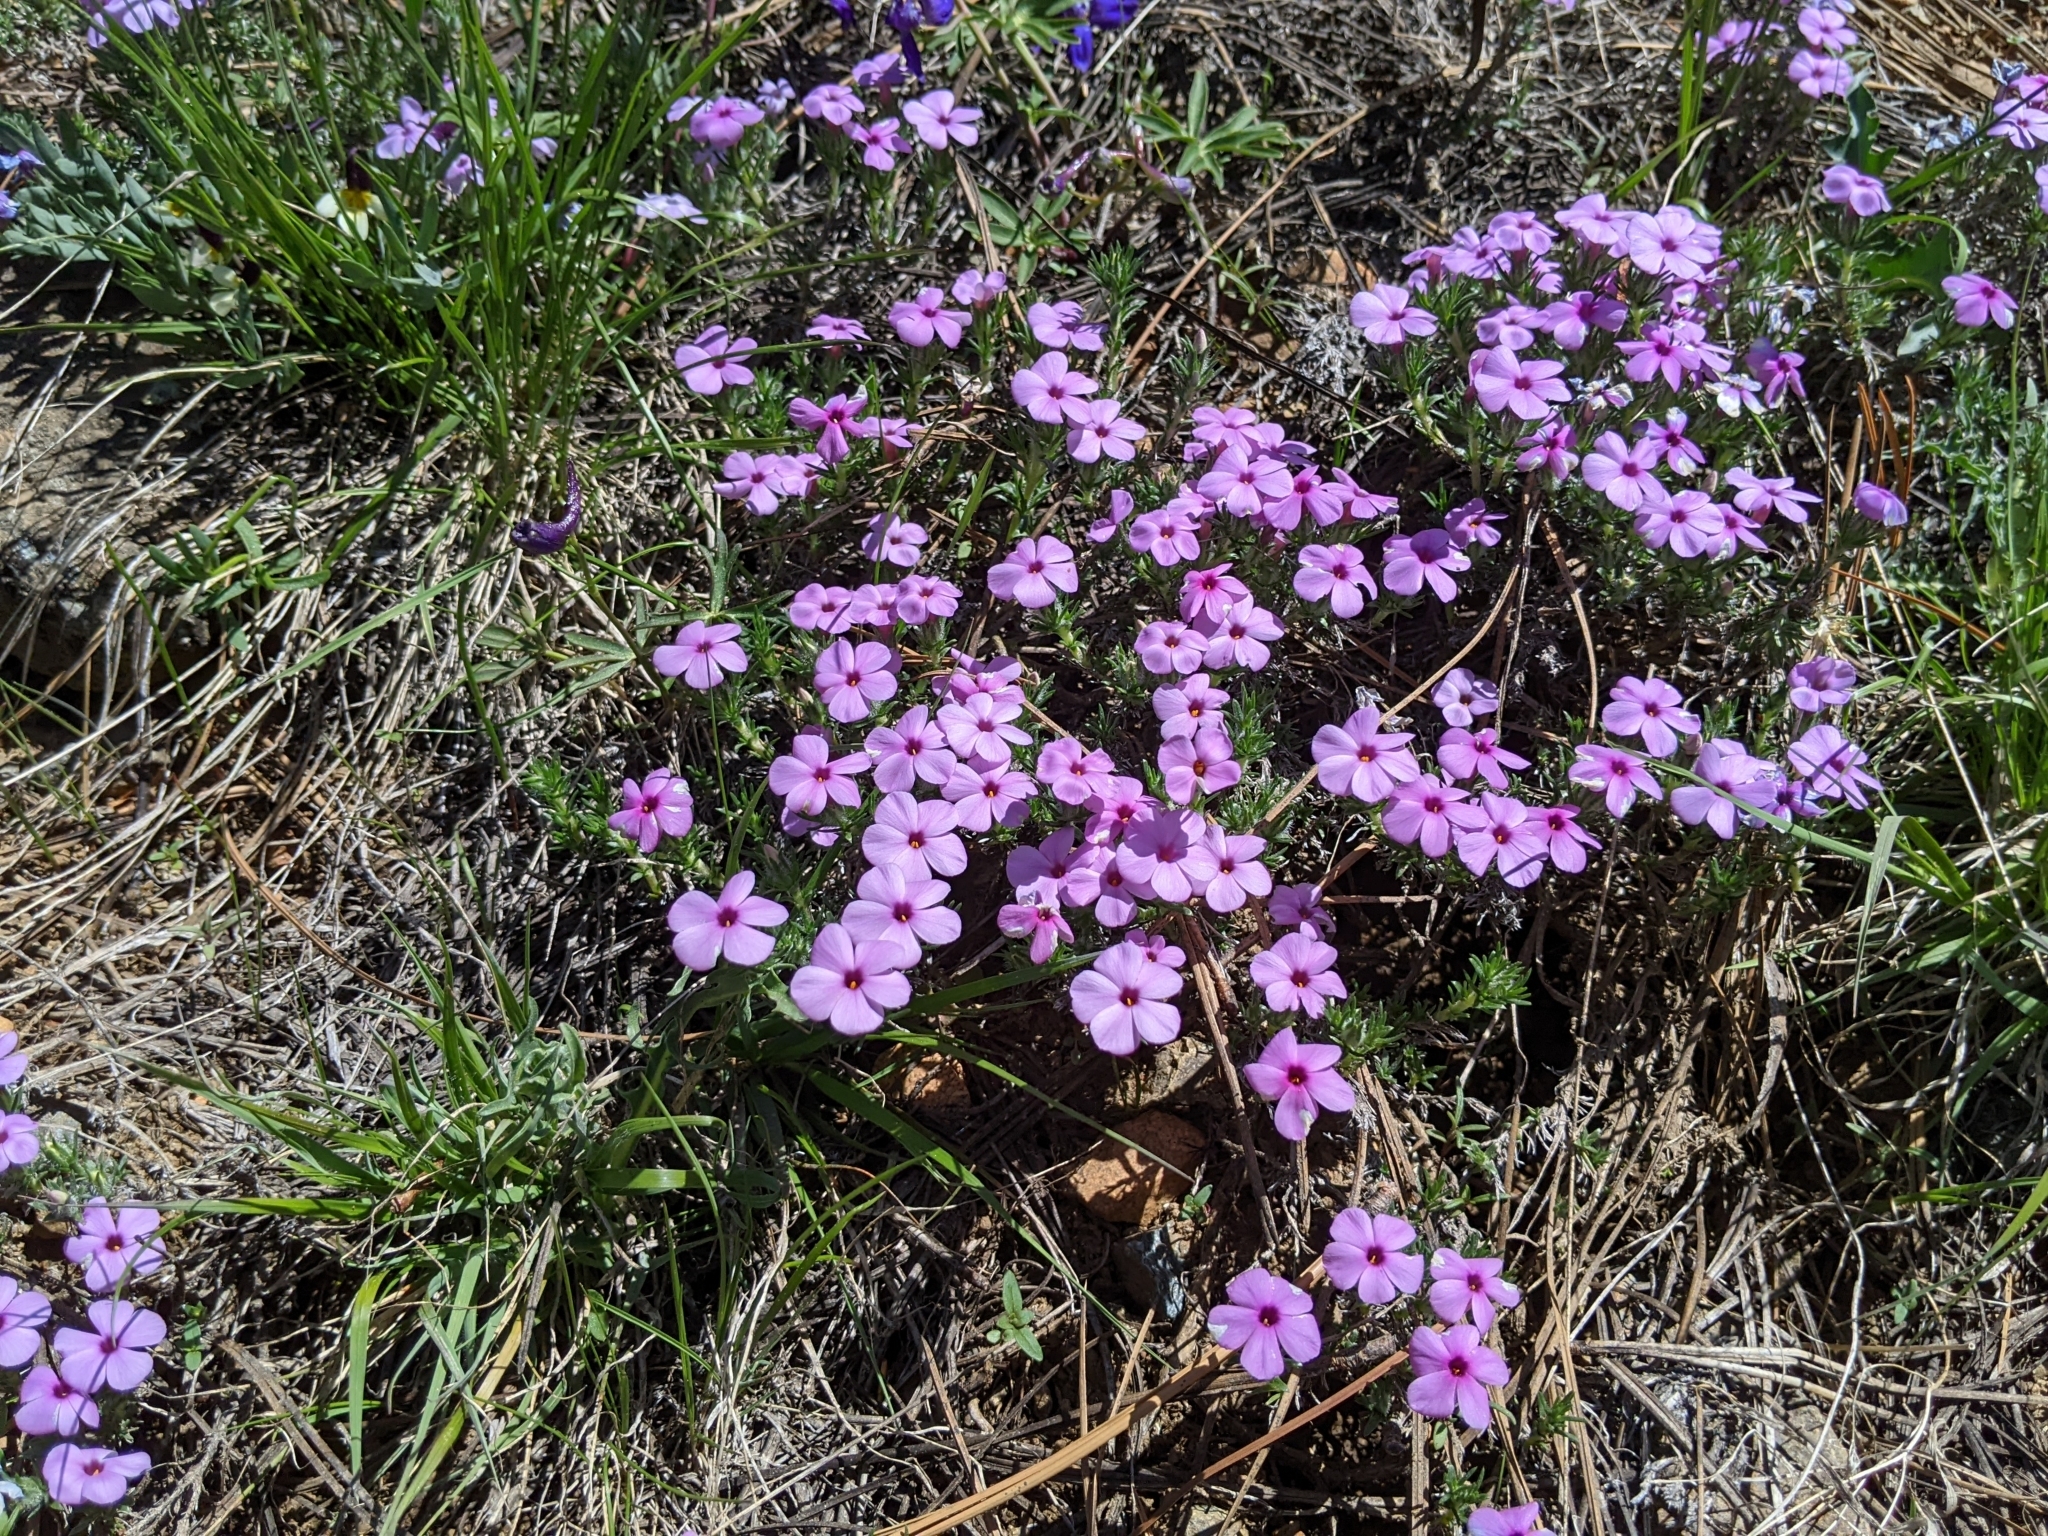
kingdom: Plantae
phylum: Tracheophyta
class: Magnoliopsida
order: Ericales
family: Polemoniaceae
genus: Phlox
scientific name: Phlox diffusa
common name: Mat phlox
